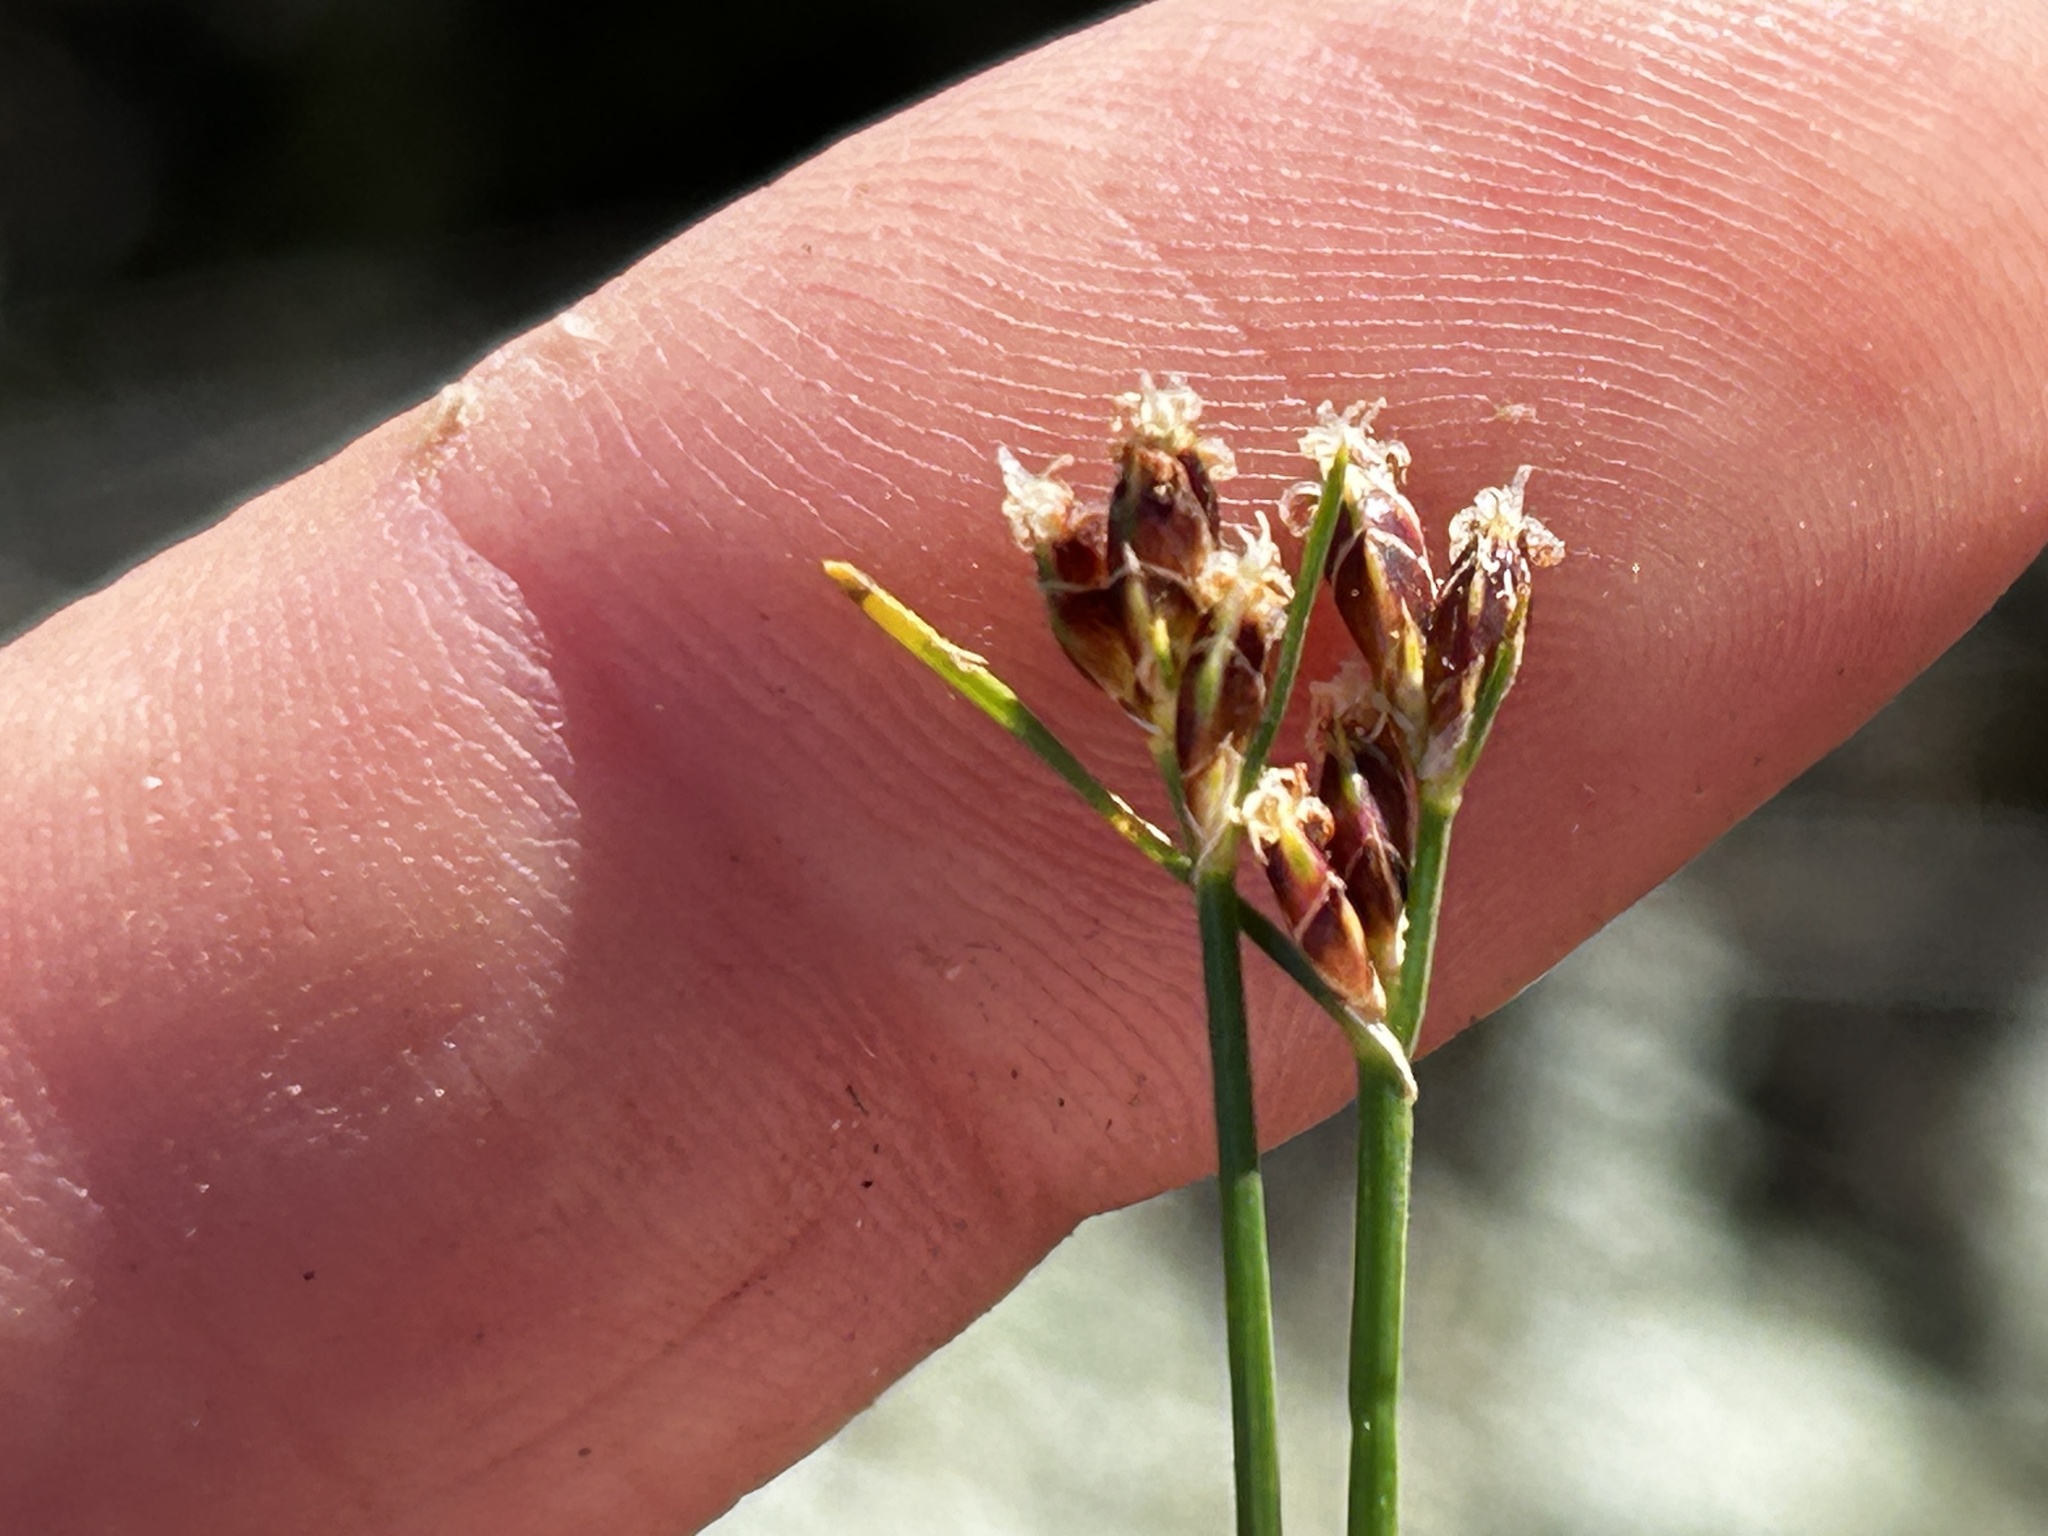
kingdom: Plantae
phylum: Tracheophyta
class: Liliopsida
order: Poales
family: Cyperaceae
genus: Schoenus
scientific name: Schoenus arenicola
